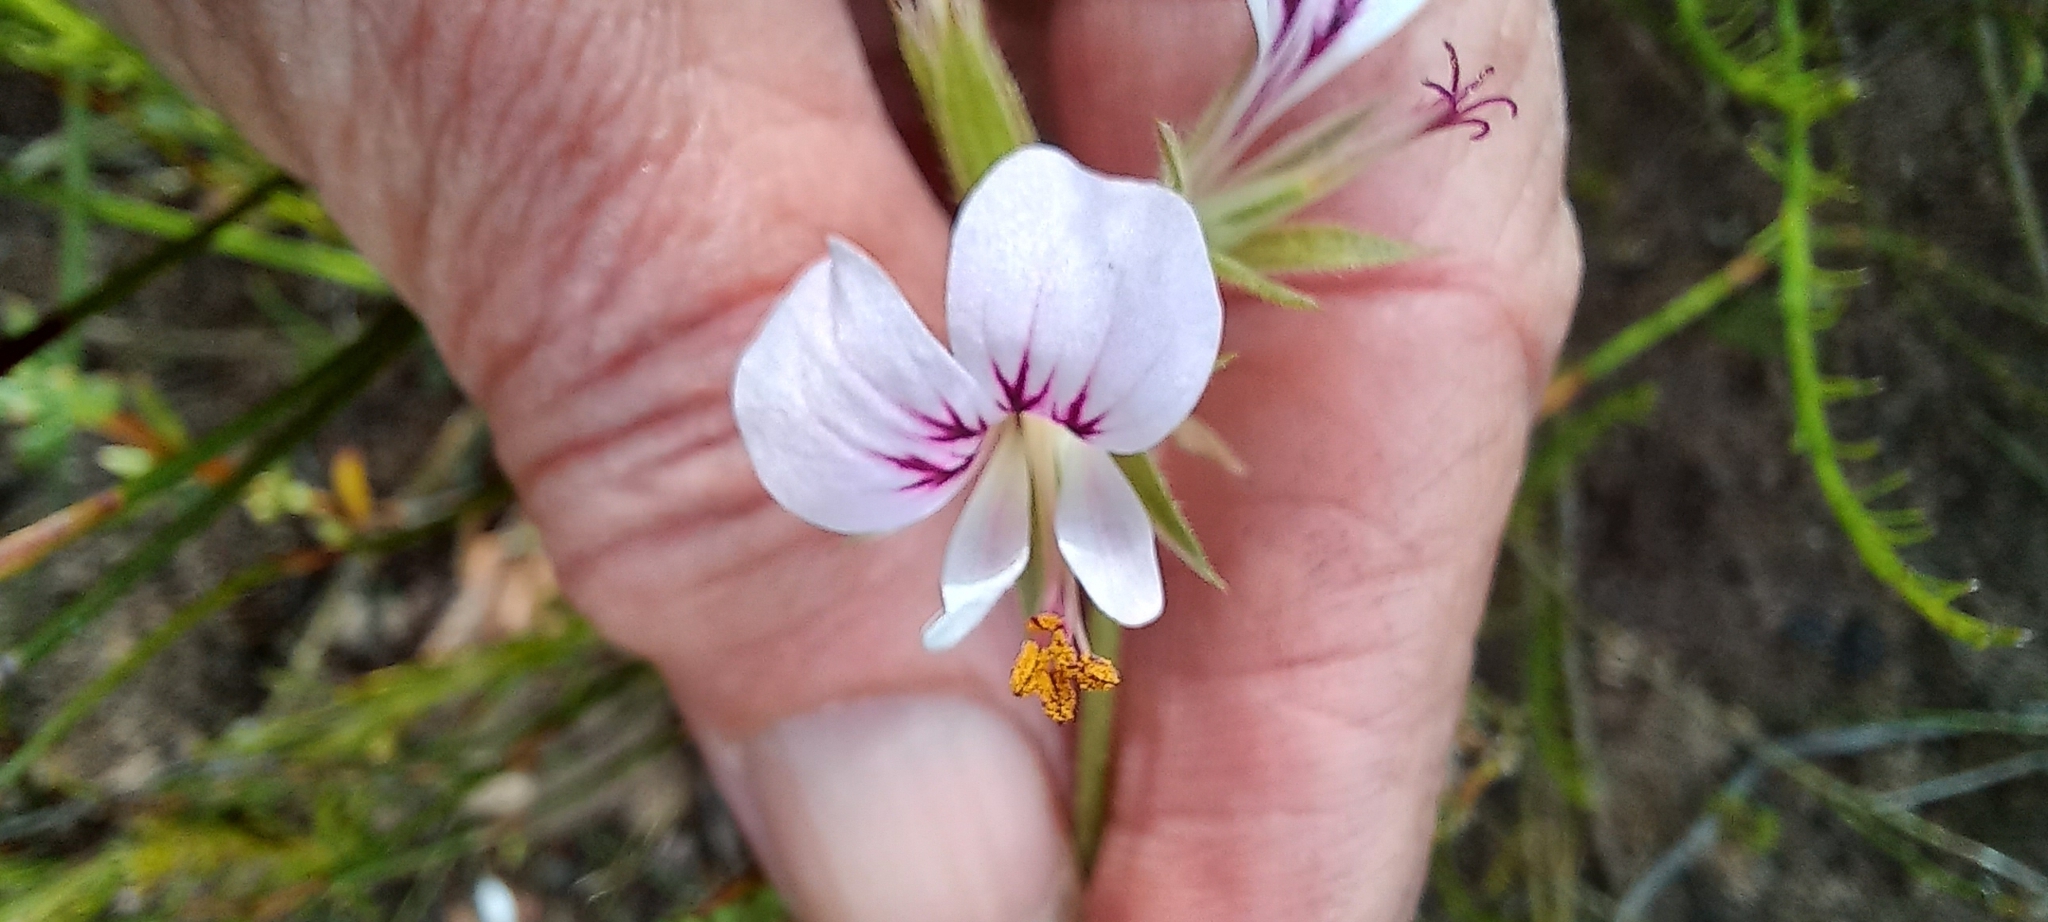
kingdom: Plantae
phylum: Tracheophyta
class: Magnoliopsida
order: Geraniales
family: Geraniaceae
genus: Pelargonium
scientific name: Pelargonium myrrhifolium
